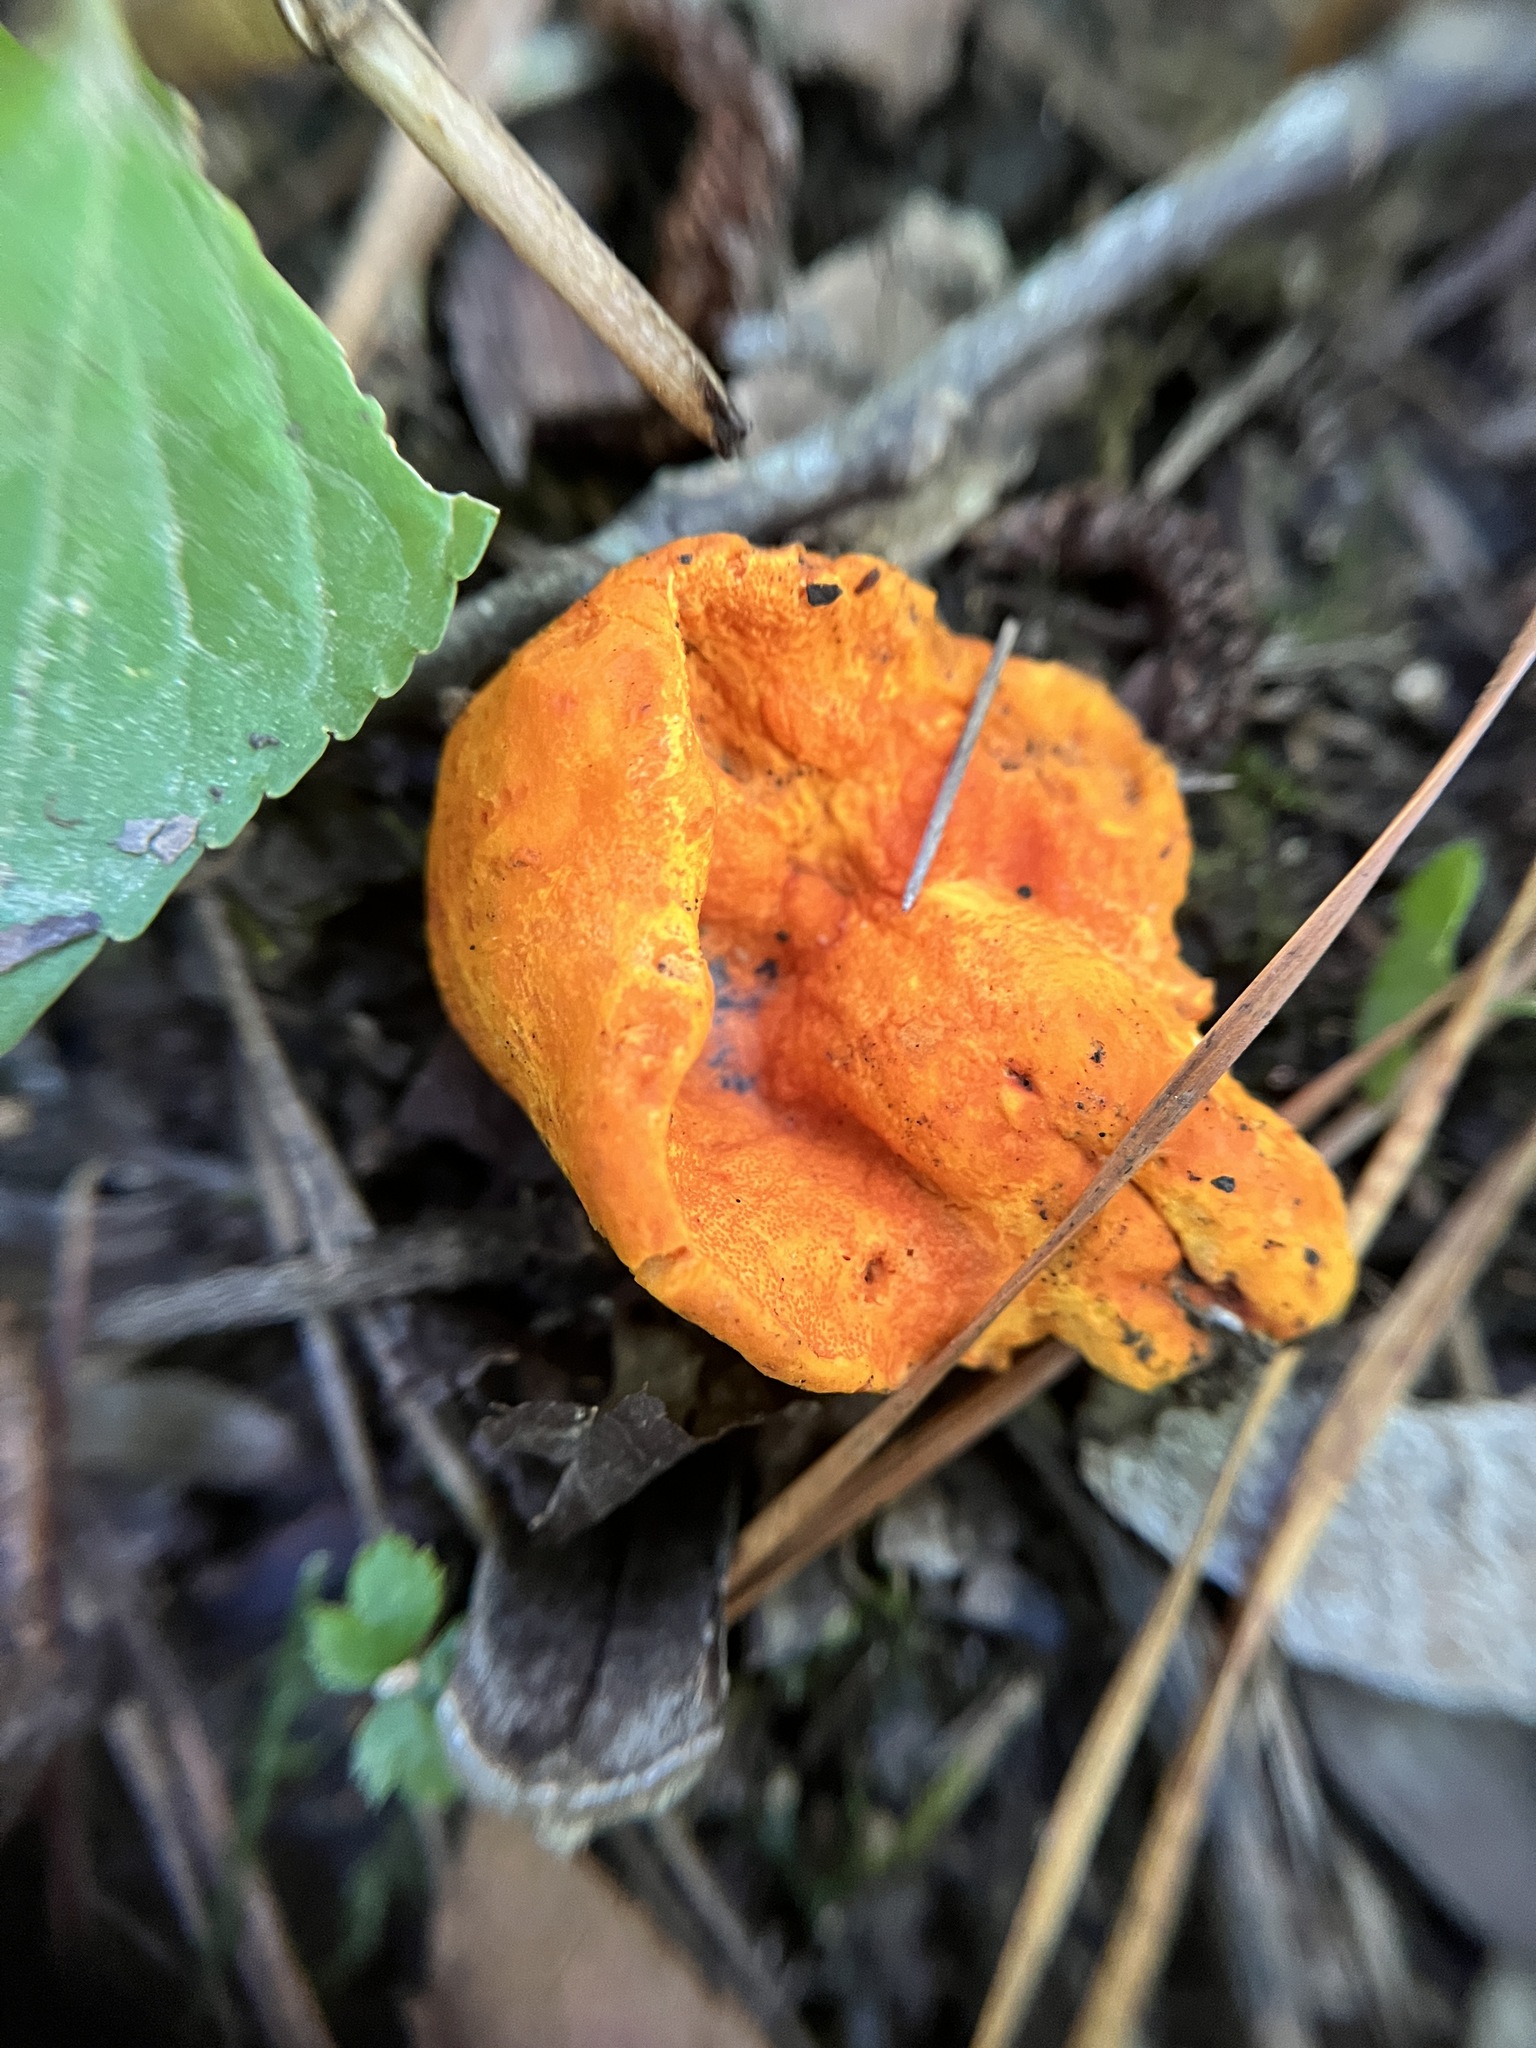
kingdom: Fungi
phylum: Ascomycota
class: Sordariomycetes
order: Hypocreales
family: Hypocreaceae
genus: Hypomyces
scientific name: Hypomyces lactifluorum
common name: Lobster mushroom
